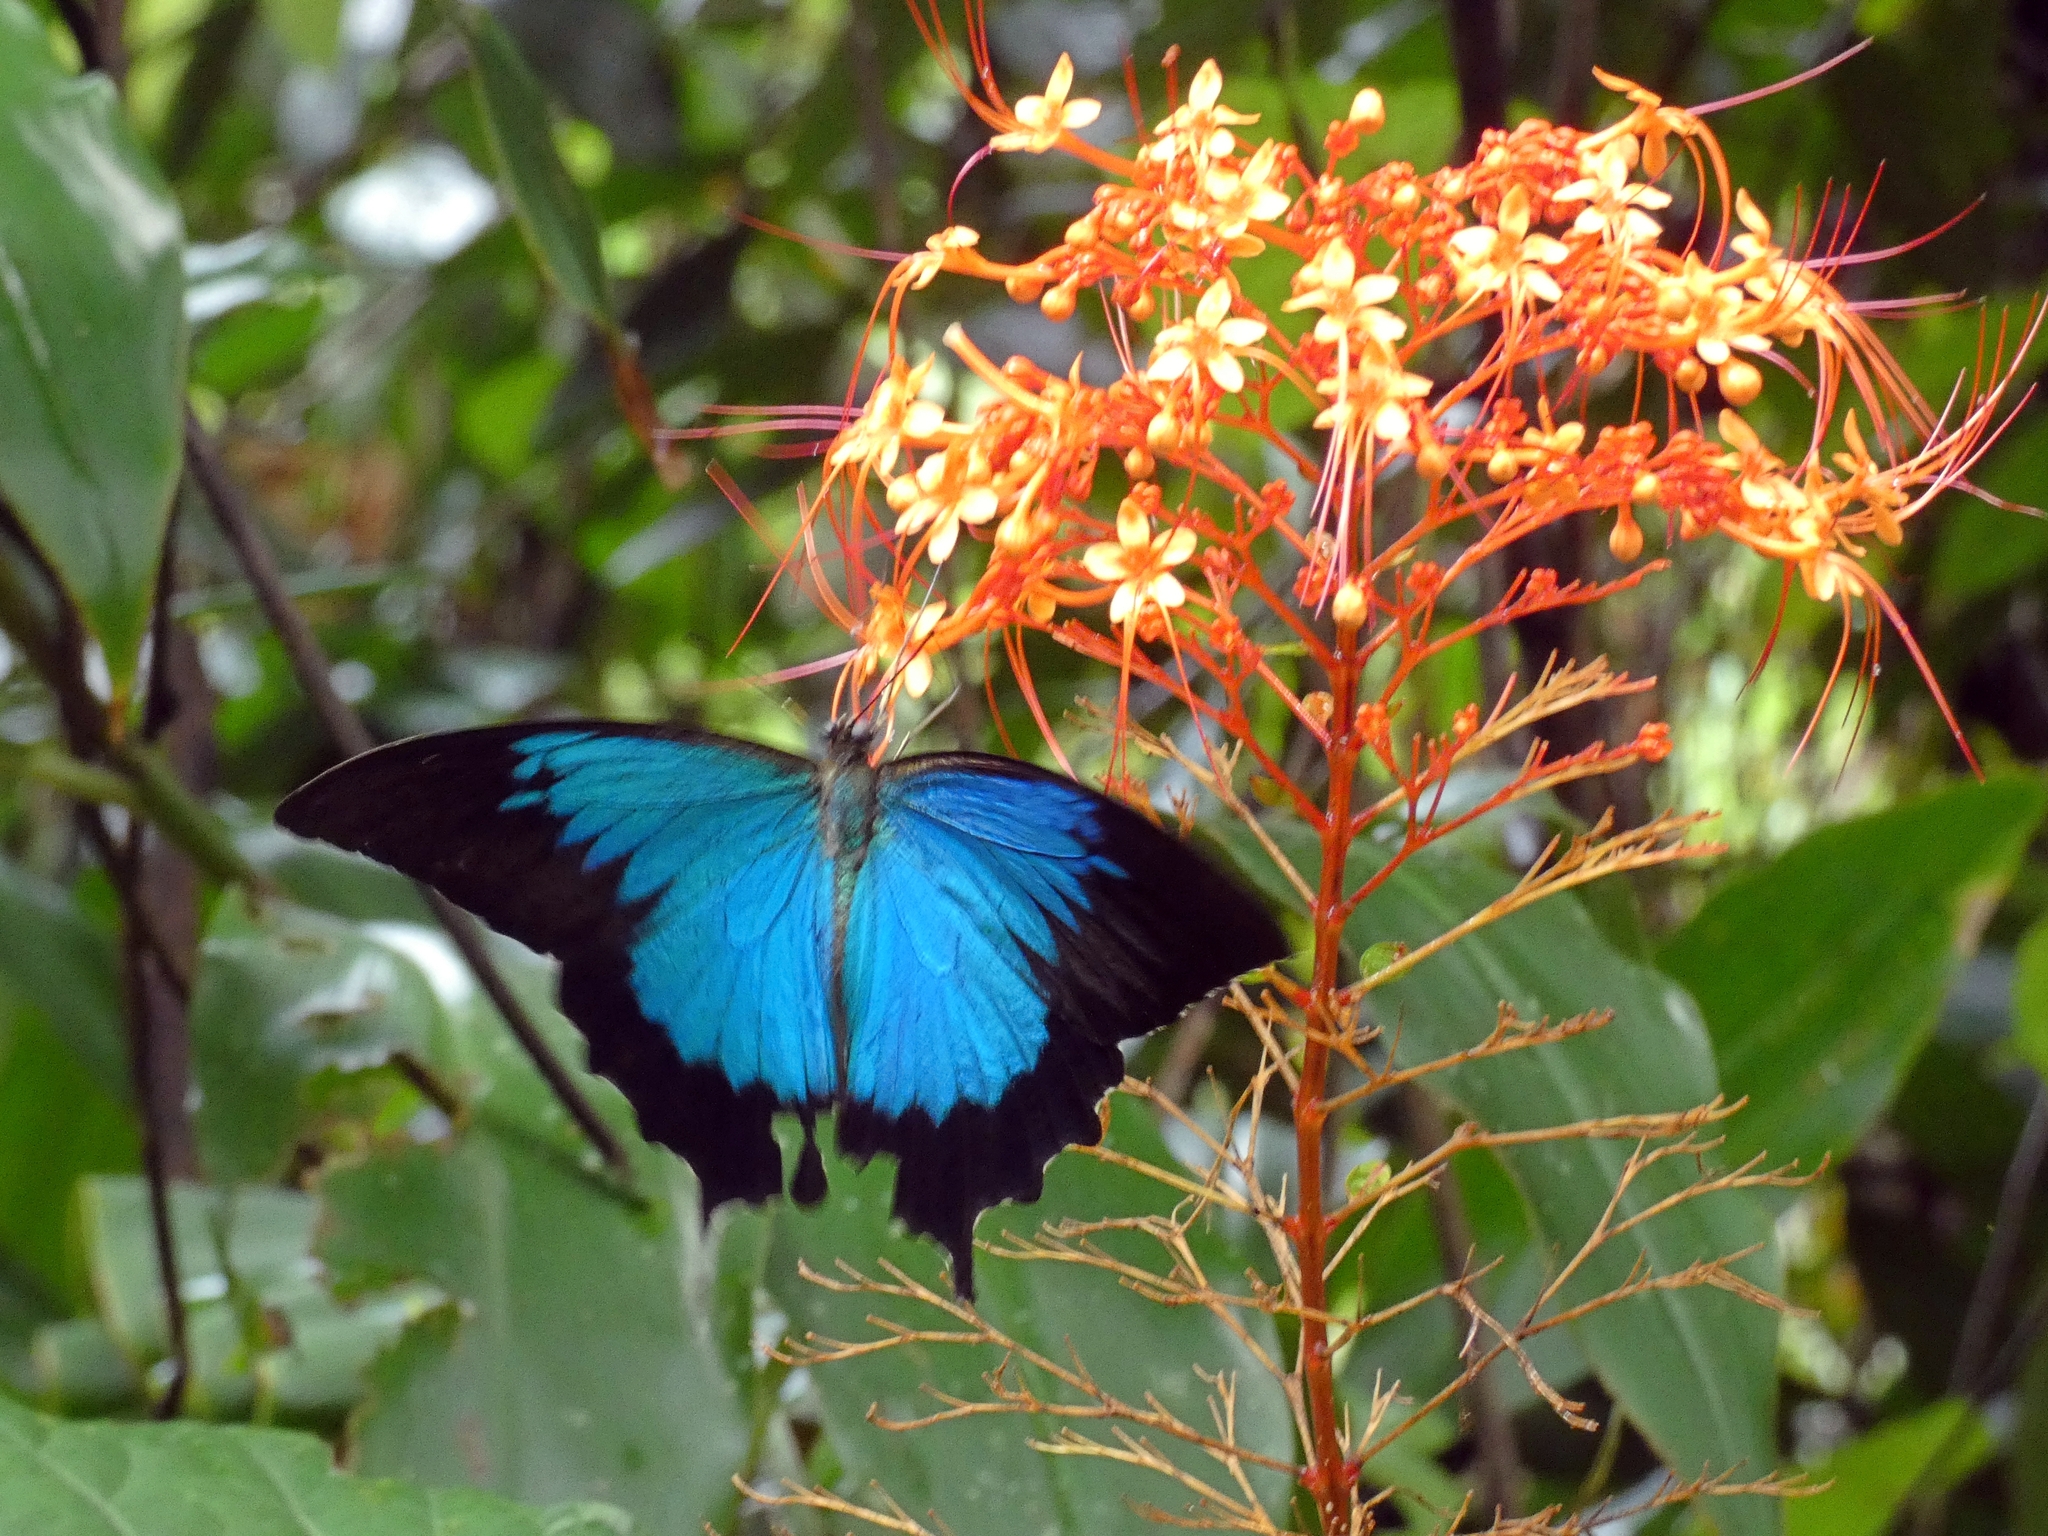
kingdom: Animalia
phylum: Arthropoda
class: Insecta
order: Lepidoptera
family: Papilionidae
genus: Papilio
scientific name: Papilio ulysses
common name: Blue emperor
